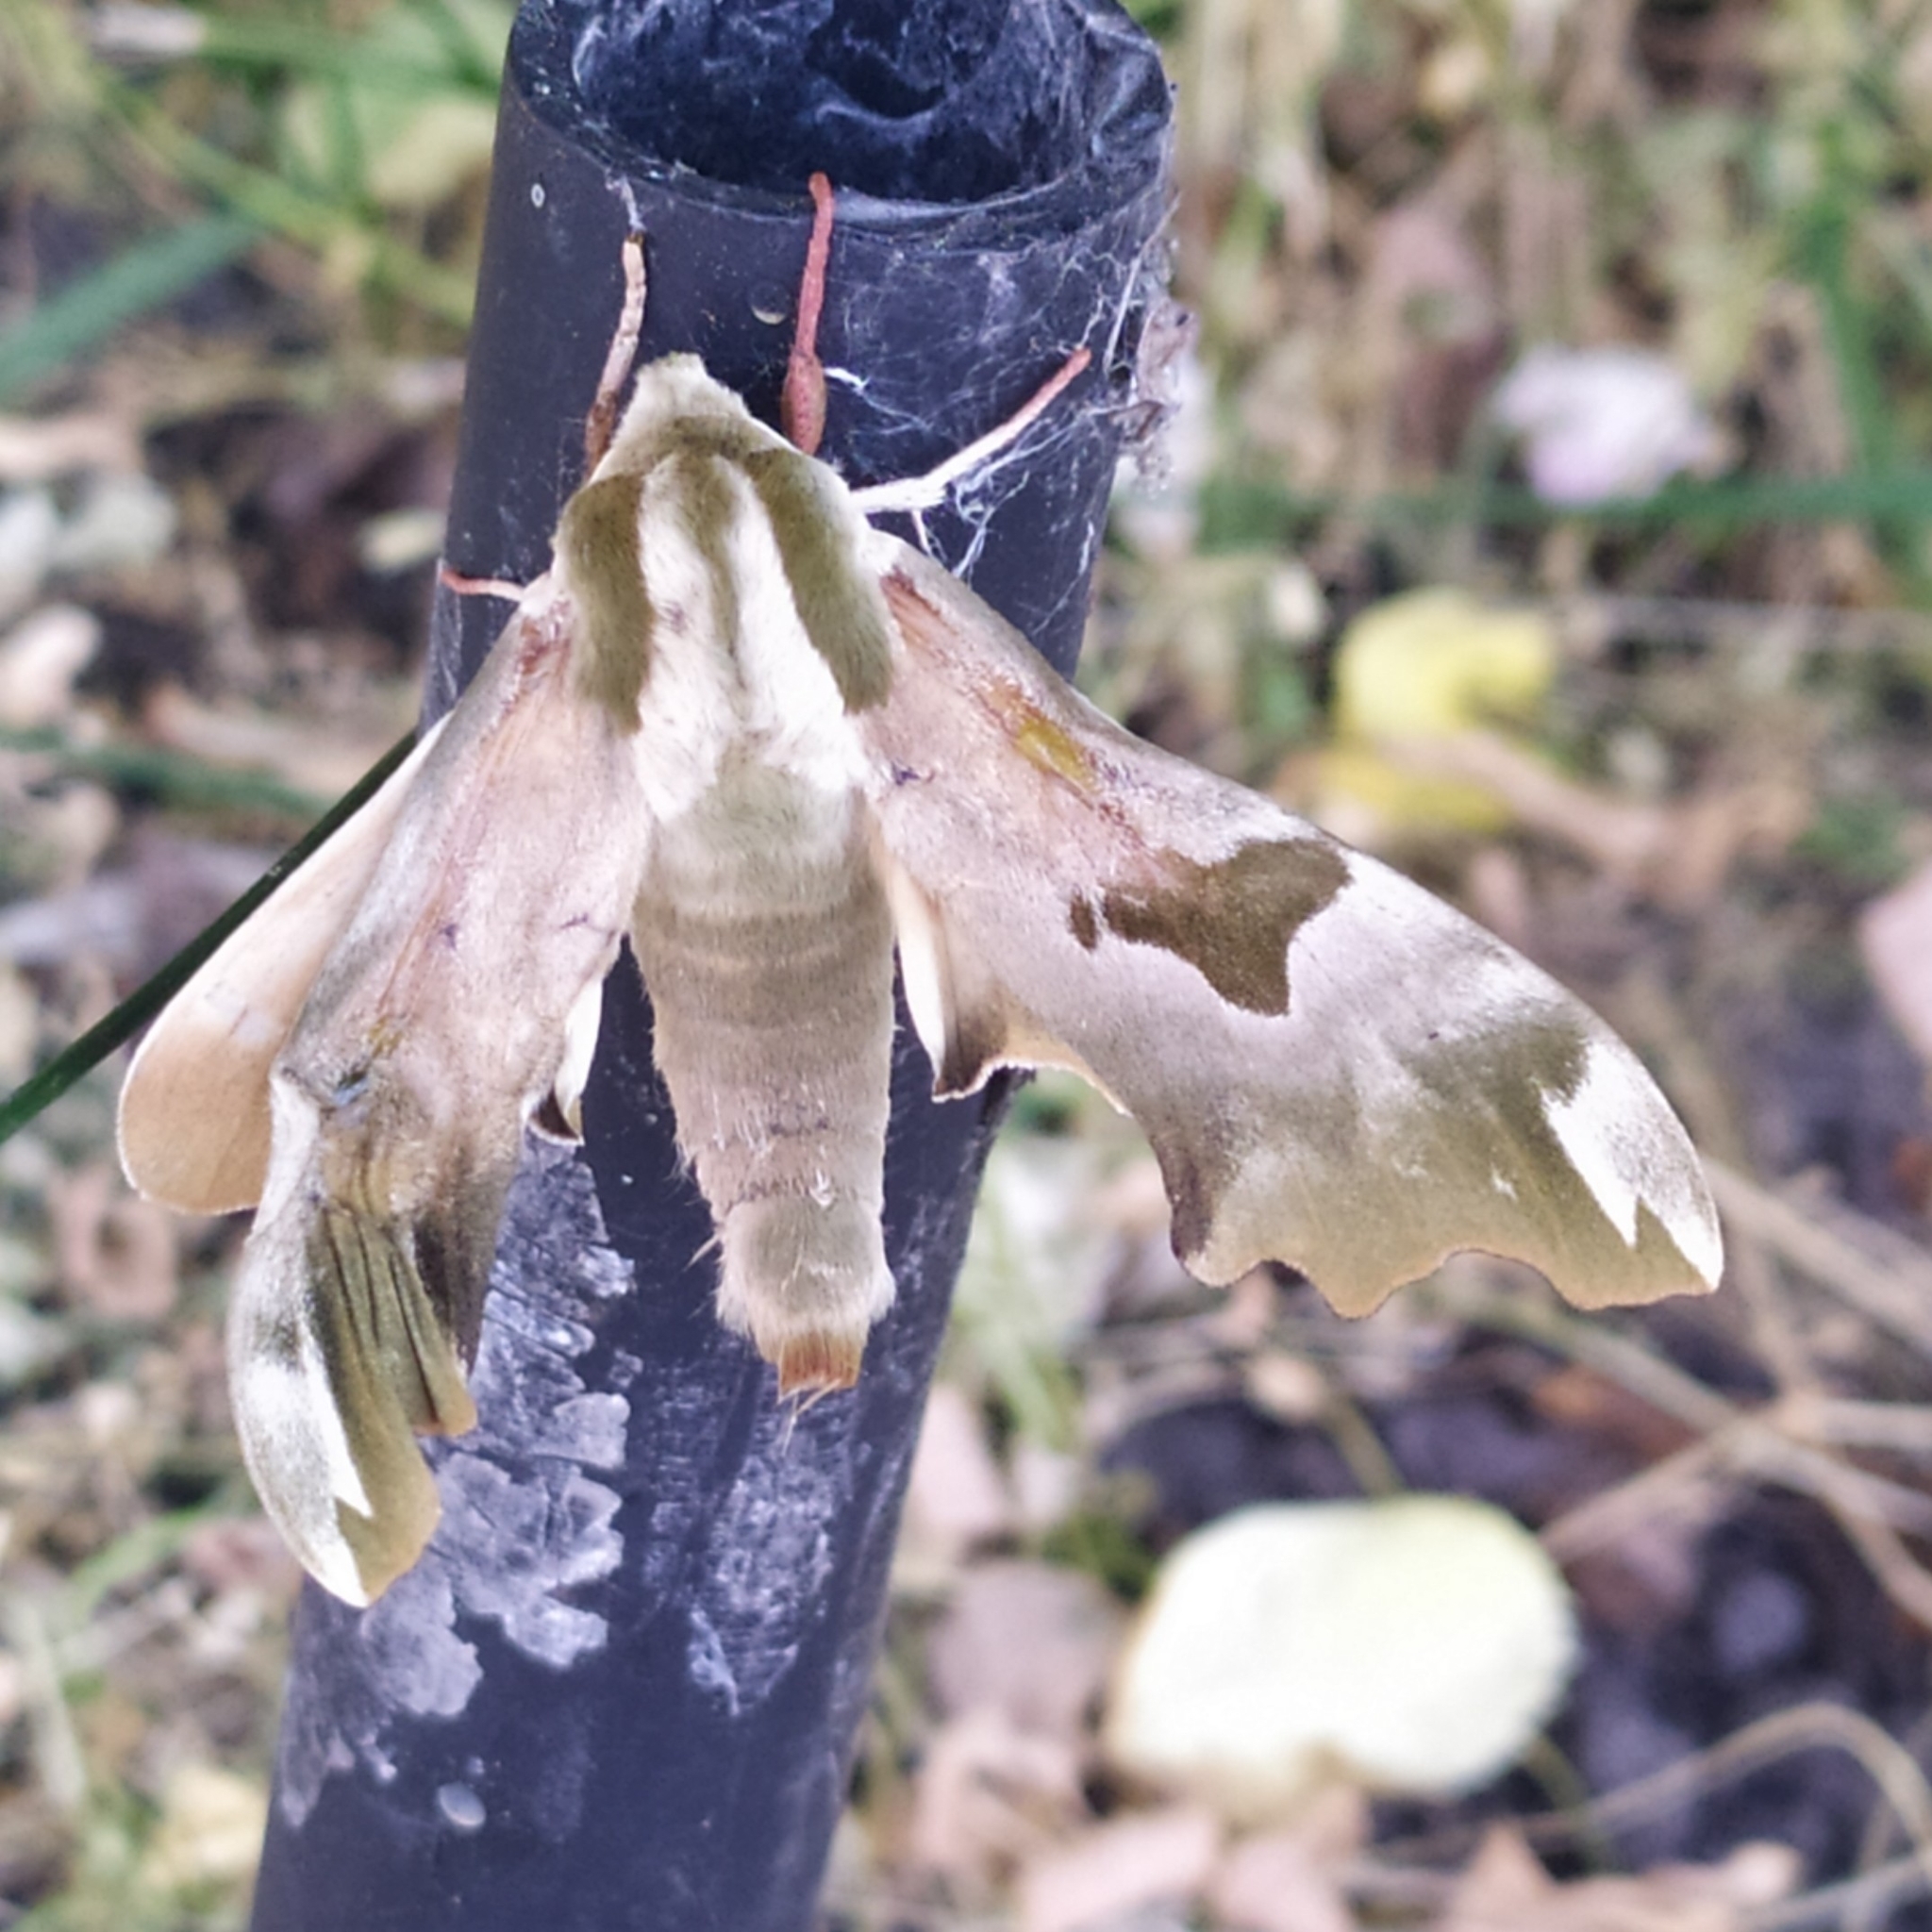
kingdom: Animalia
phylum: Arthropoda
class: Insecta
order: Lepidoptera
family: Sphingidae
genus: Mimas
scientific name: Mimas tiliae
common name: Lime hawk-moth
